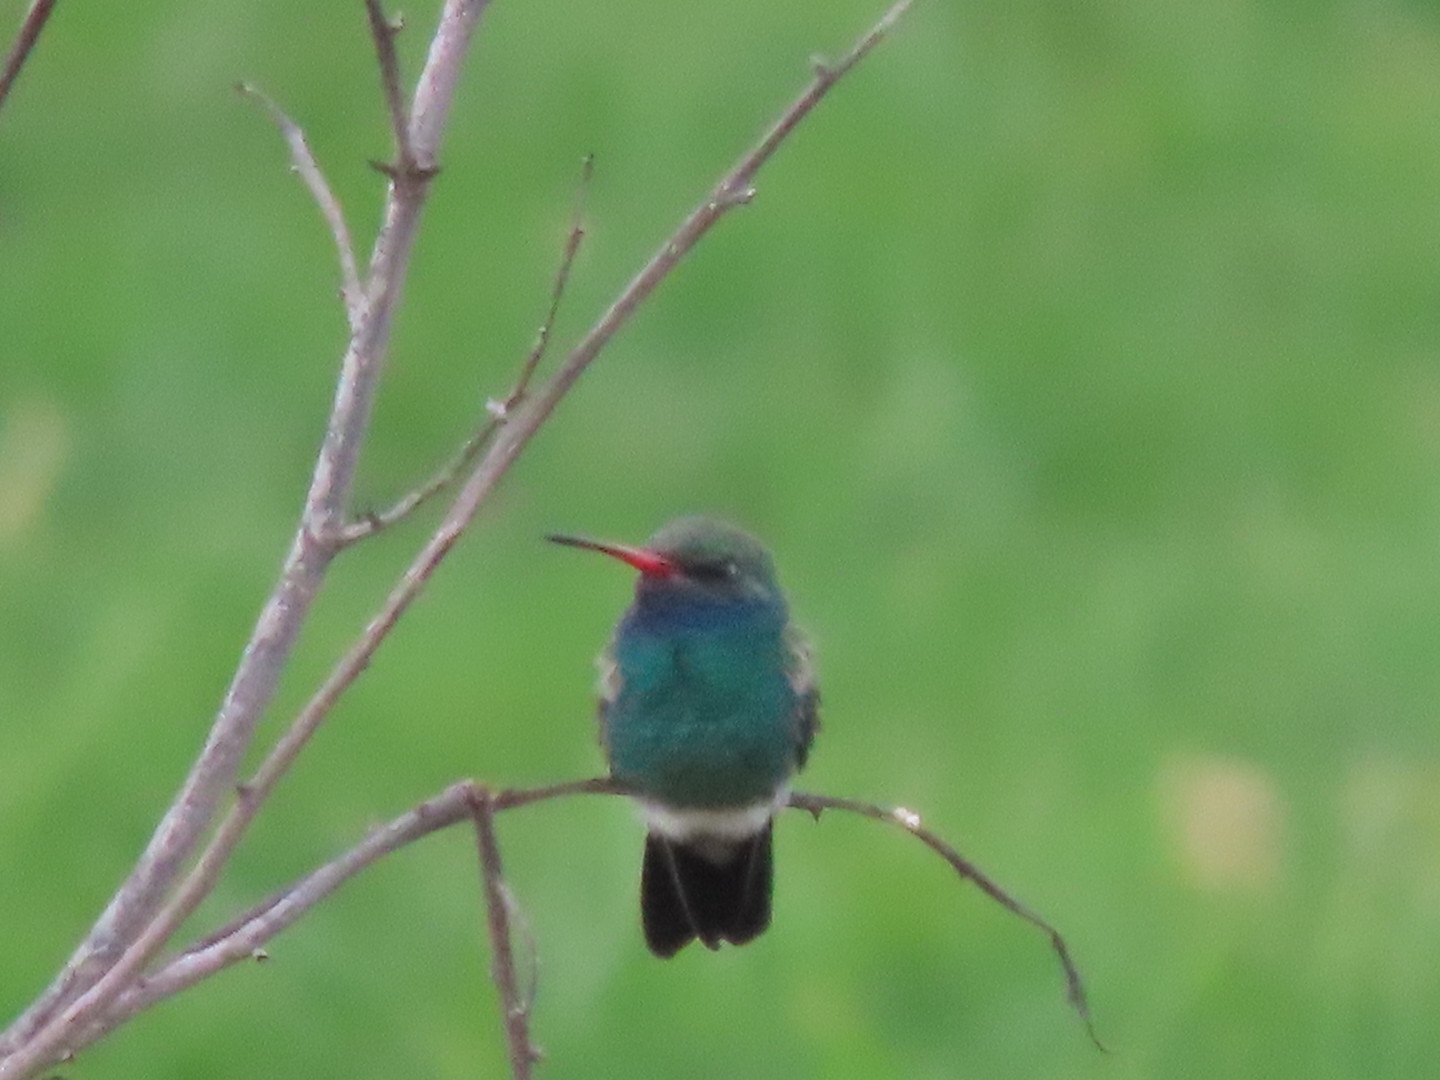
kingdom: Animalia
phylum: Chordata
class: Aves
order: Apodiformes
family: Trochilidae
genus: Cynanthus
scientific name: Cynanthus latirostris
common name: Broad-billed hummingbird
